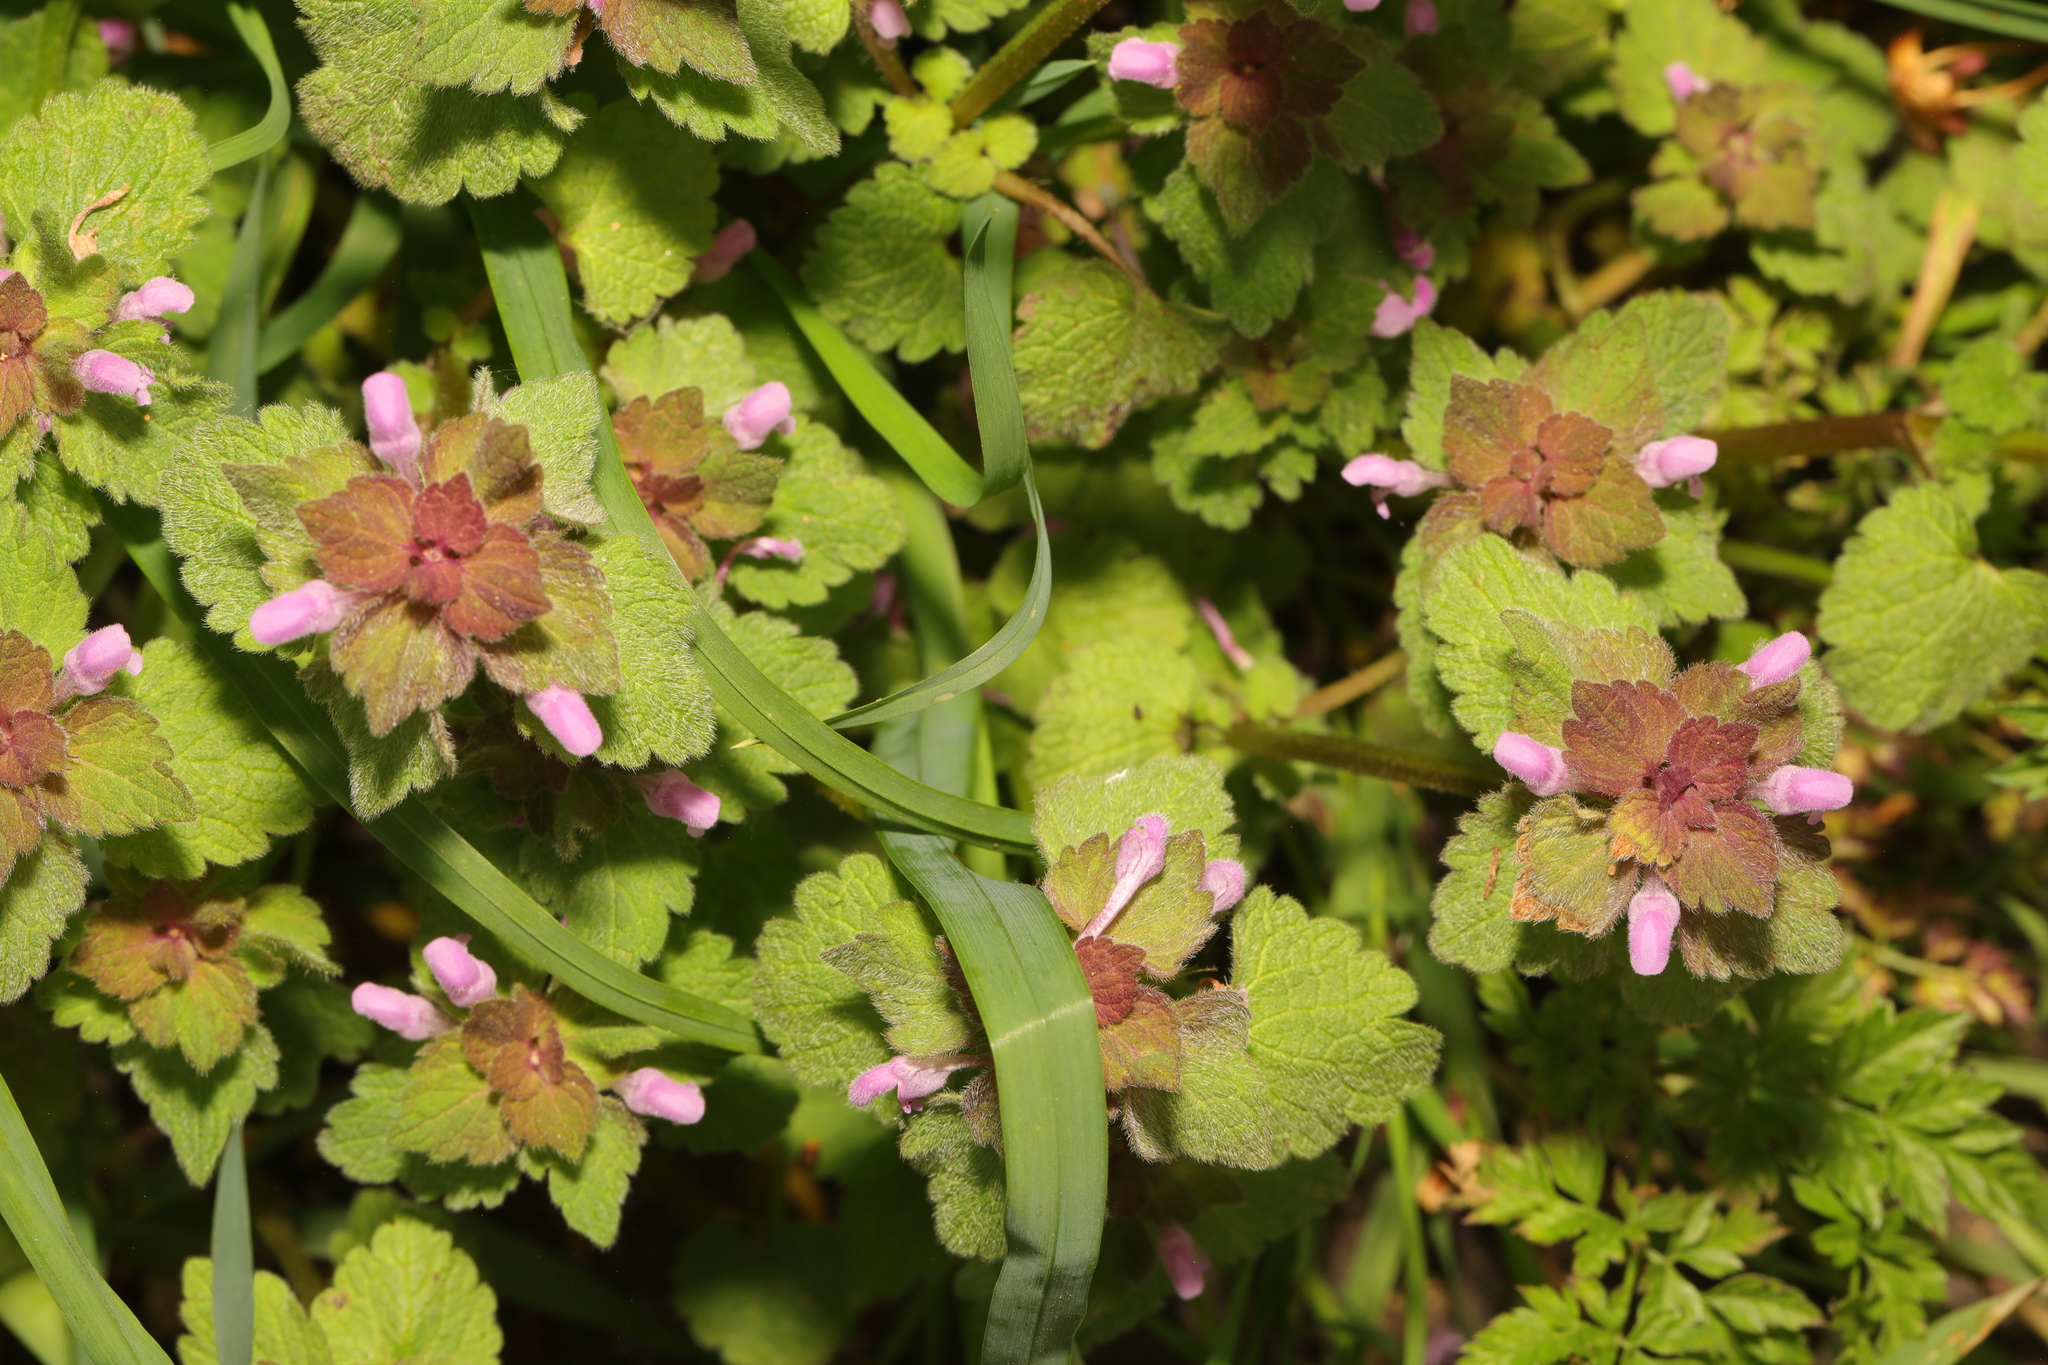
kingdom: Plantae
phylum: Tracheophyta
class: Magnoliopsida
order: Lamiales
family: Lamiaceae
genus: Lamium
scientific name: Lamium purpureum
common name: Red dead-nettle
